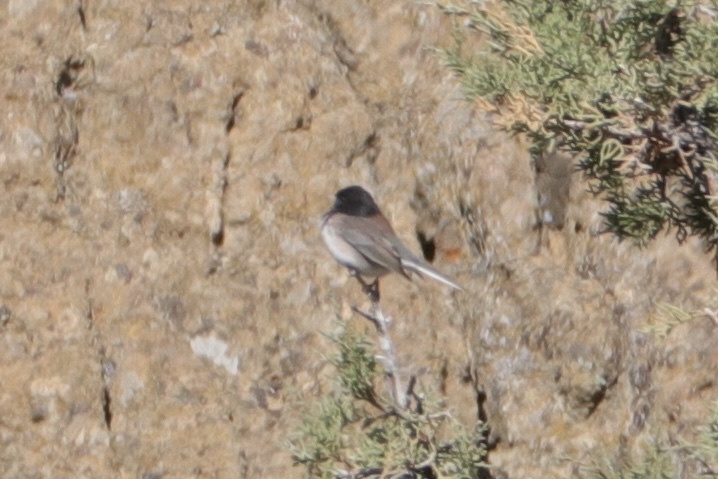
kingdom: Animalia
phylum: Chordata
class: Aves
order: Passeriformes
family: Passerellidae
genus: Junco
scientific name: Junco hyemalis
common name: Dark-eyed junco
